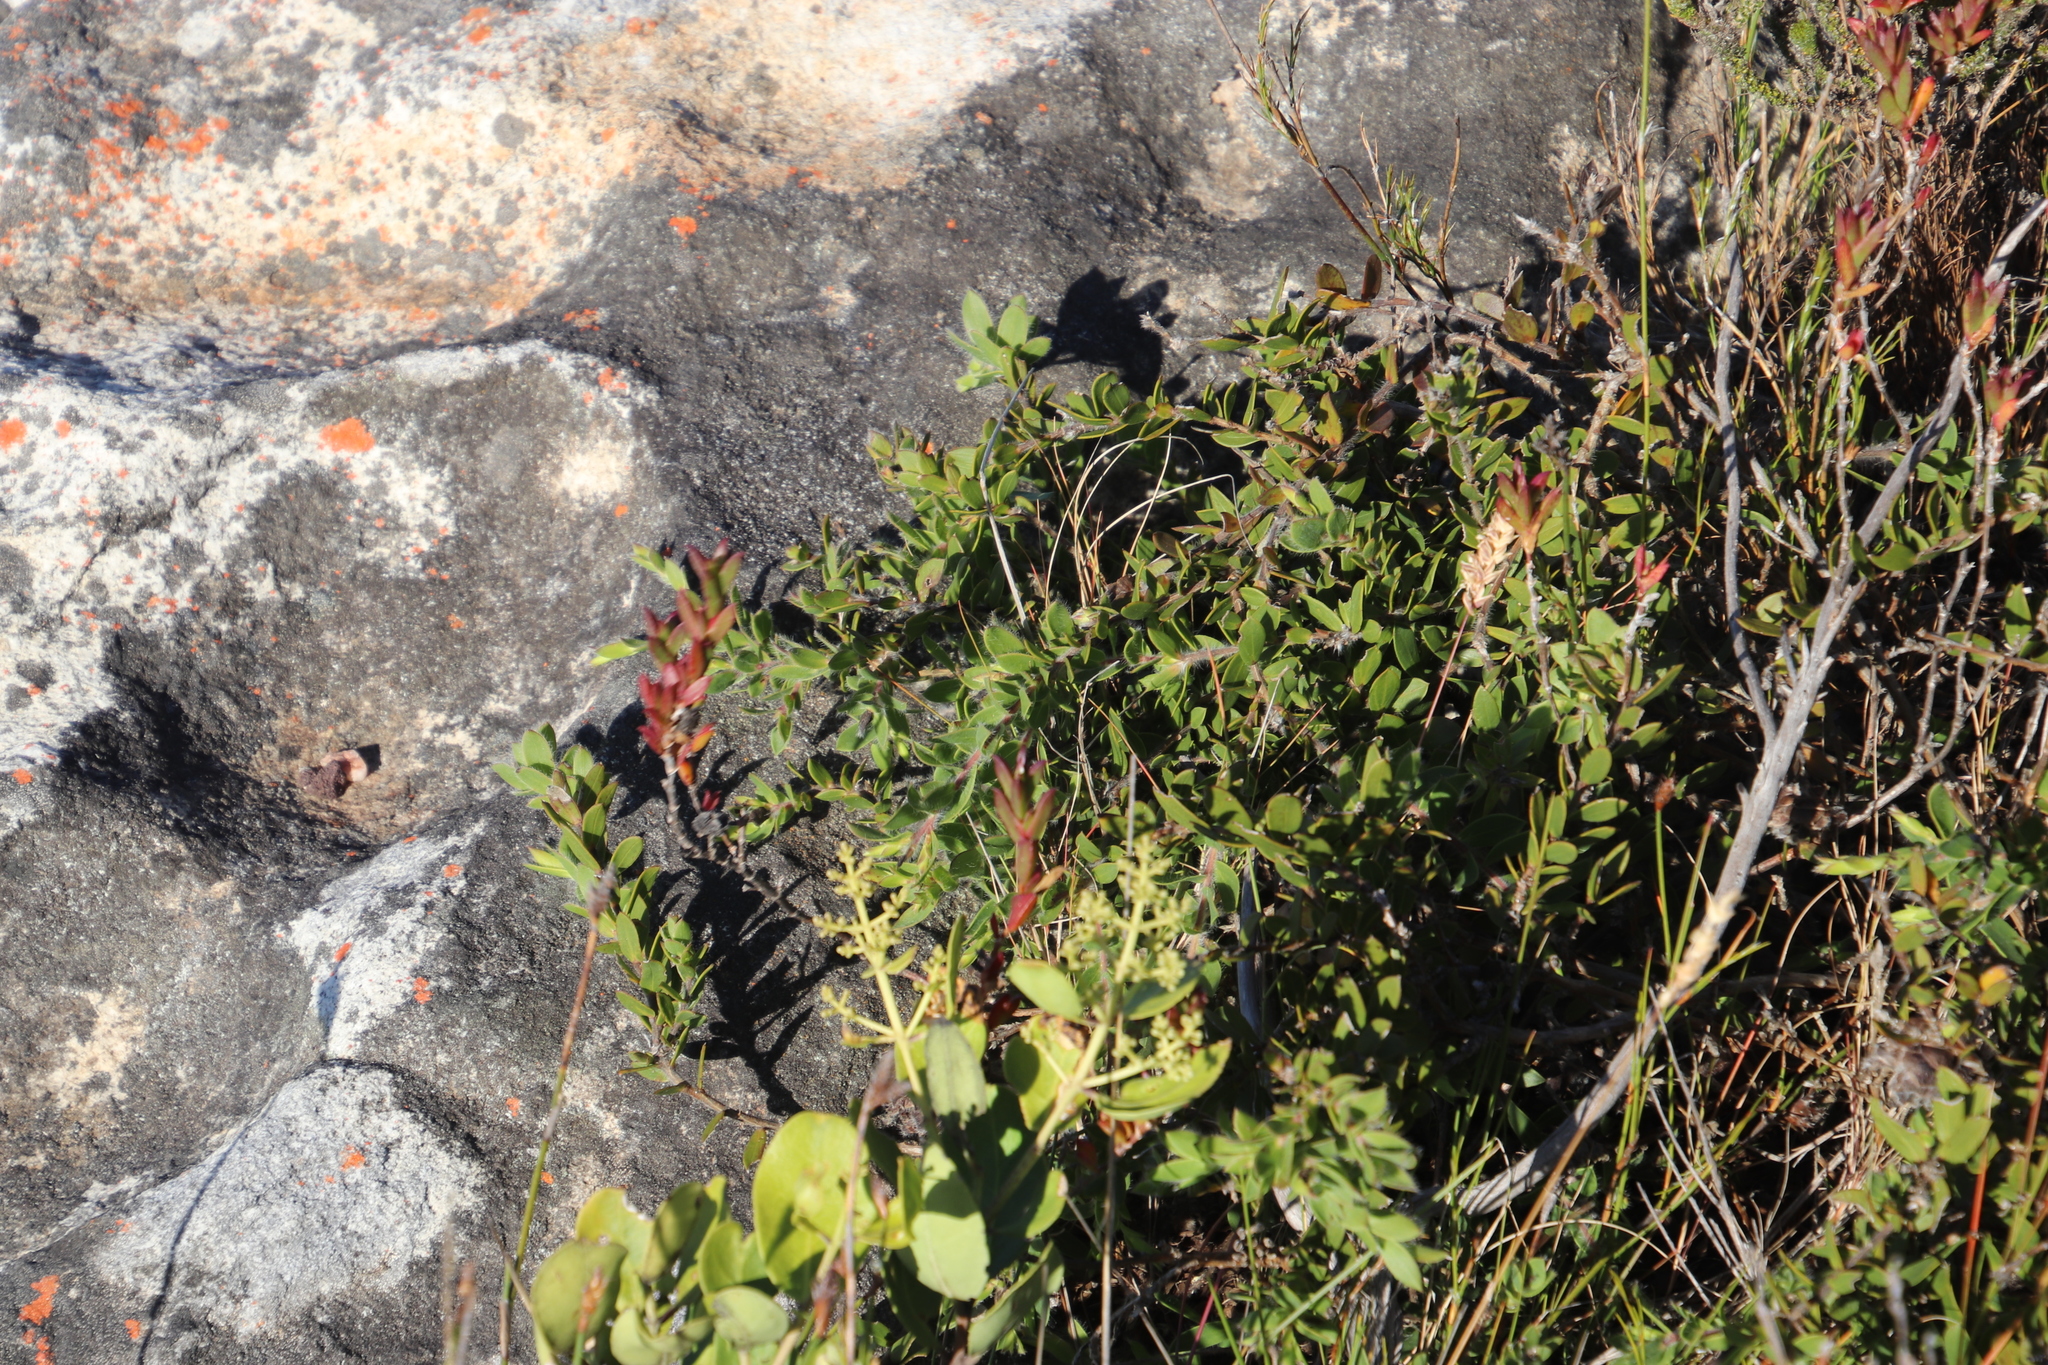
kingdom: Plantae
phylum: Tracheophyta
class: Magnoliopsida
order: Fabales
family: Fabaceae
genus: Liparia
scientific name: Liparia parva
